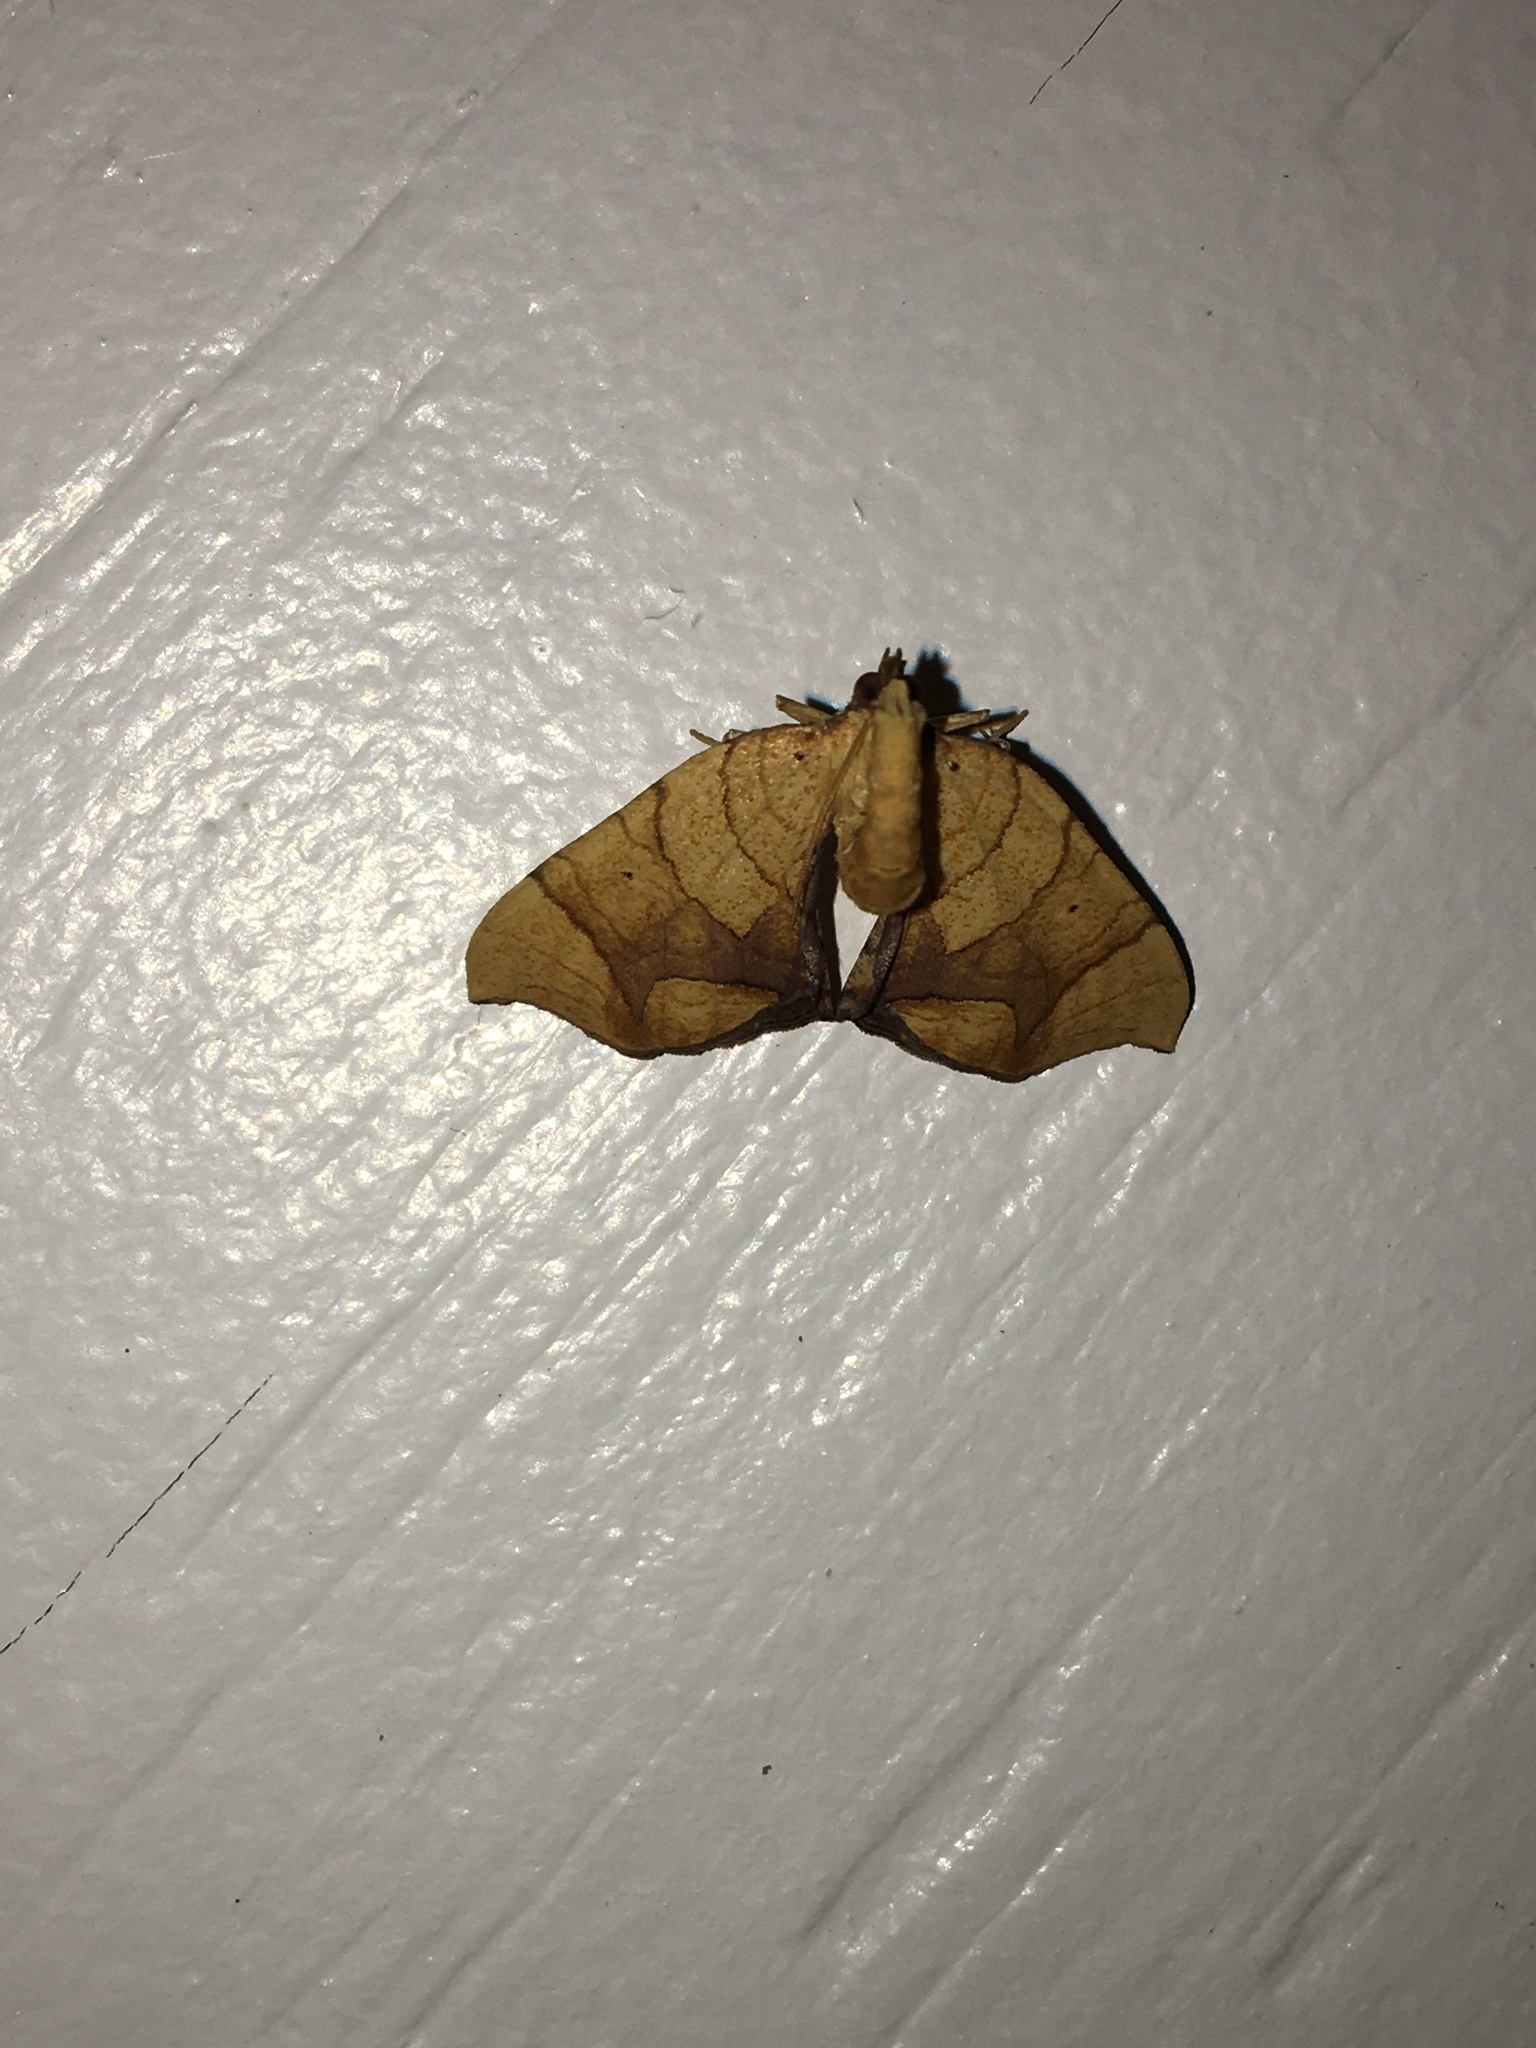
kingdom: Animalia
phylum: Arthropoda
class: Insecta
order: Lepidoptera
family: Geometridae
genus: Eulithis
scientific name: Eulithis
